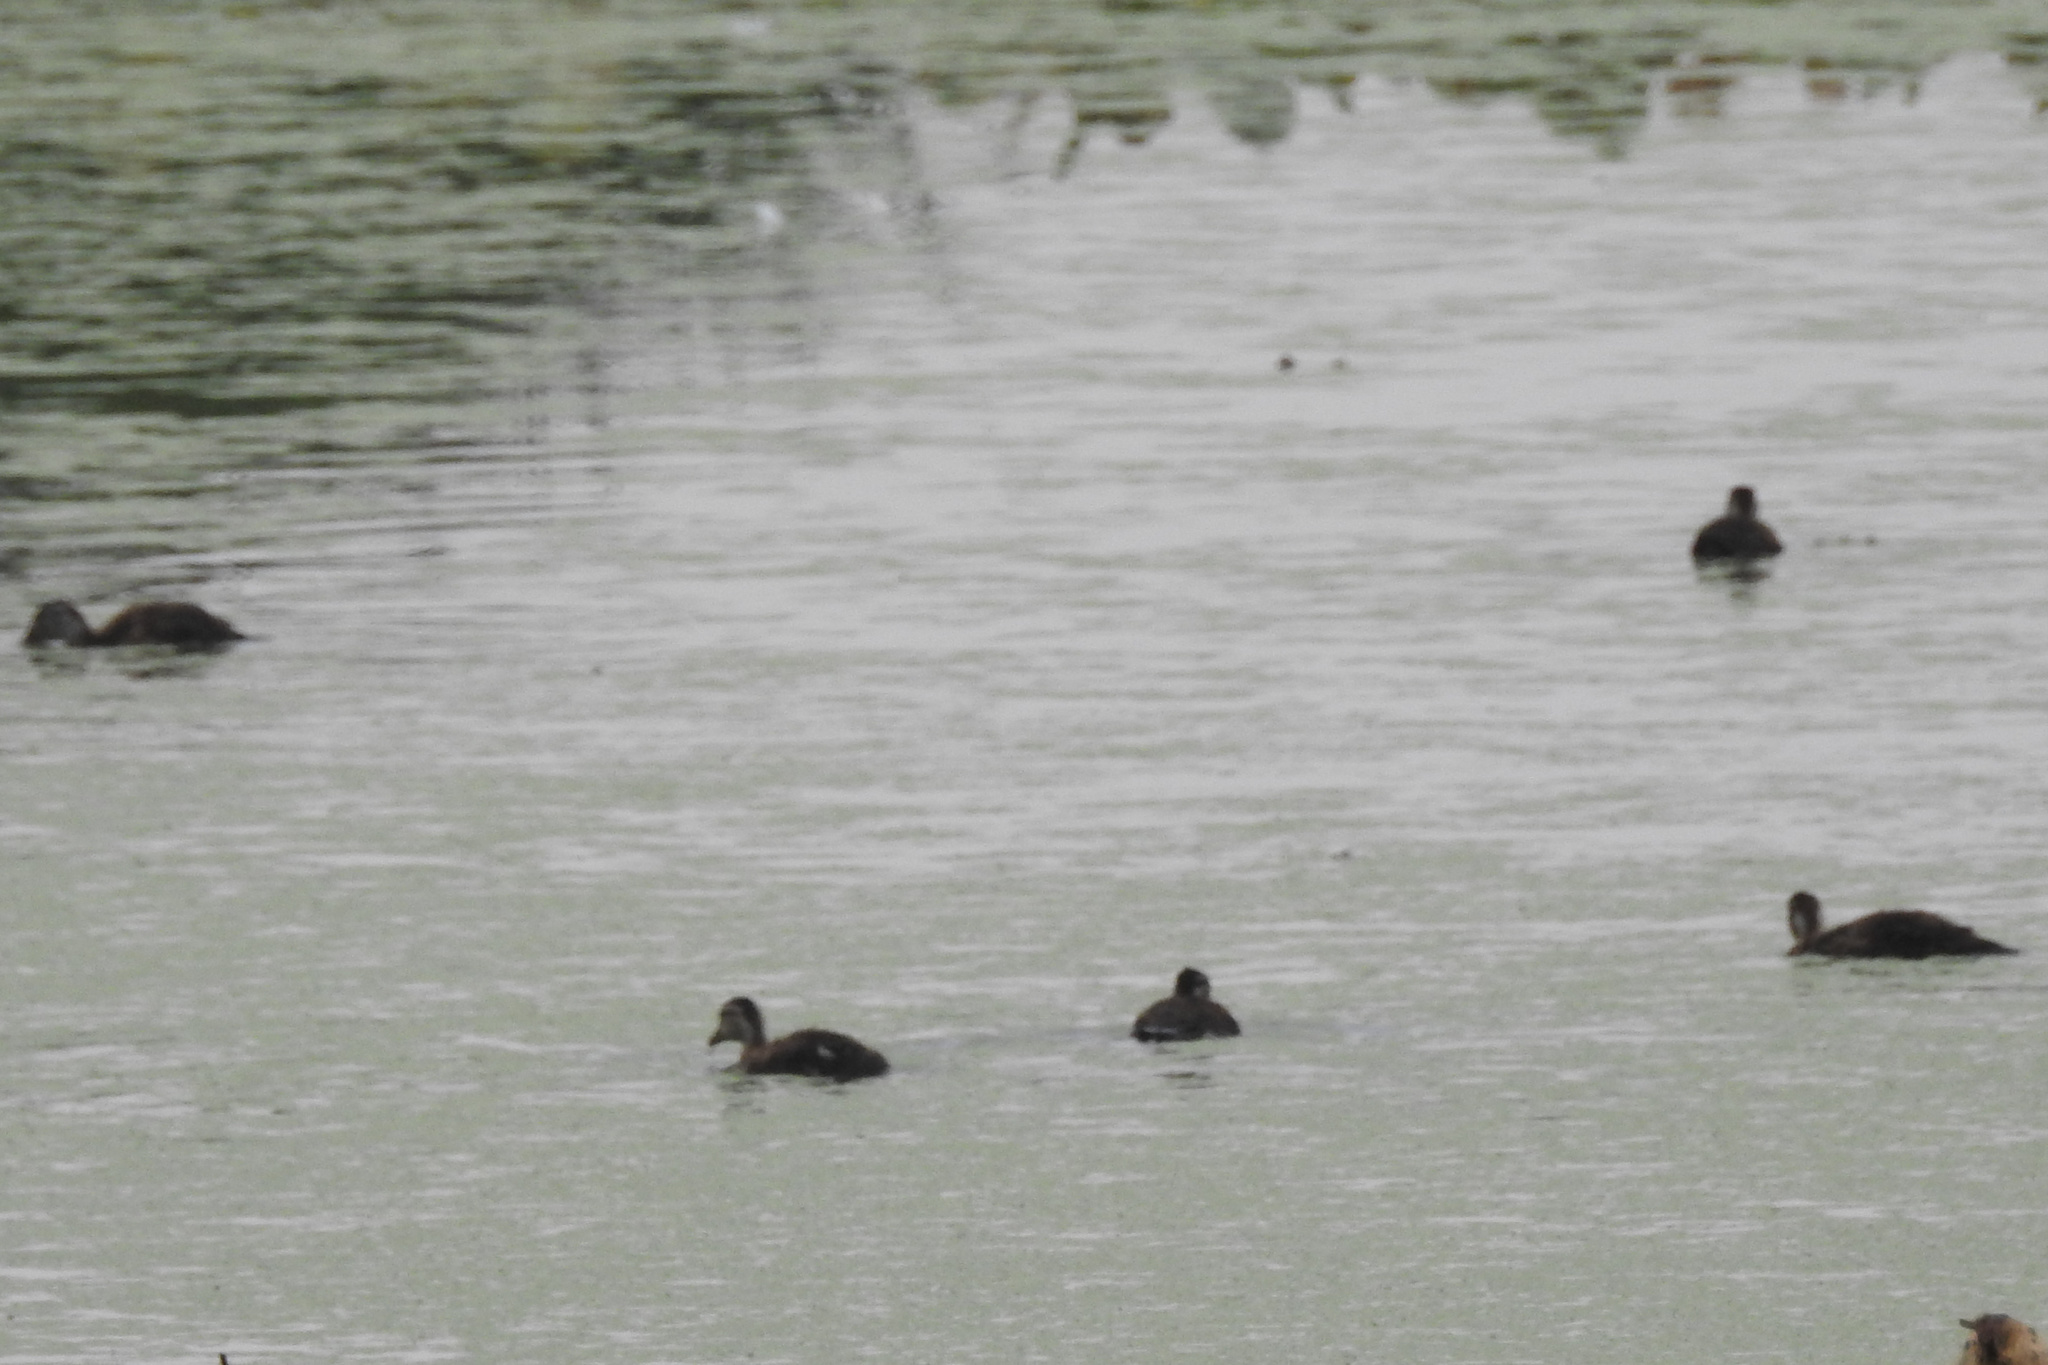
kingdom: Animalia
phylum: Chordata
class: Aves
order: Anseriformes
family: Anatidae
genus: Aix
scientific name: Aix sponsa
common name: Wood duck
